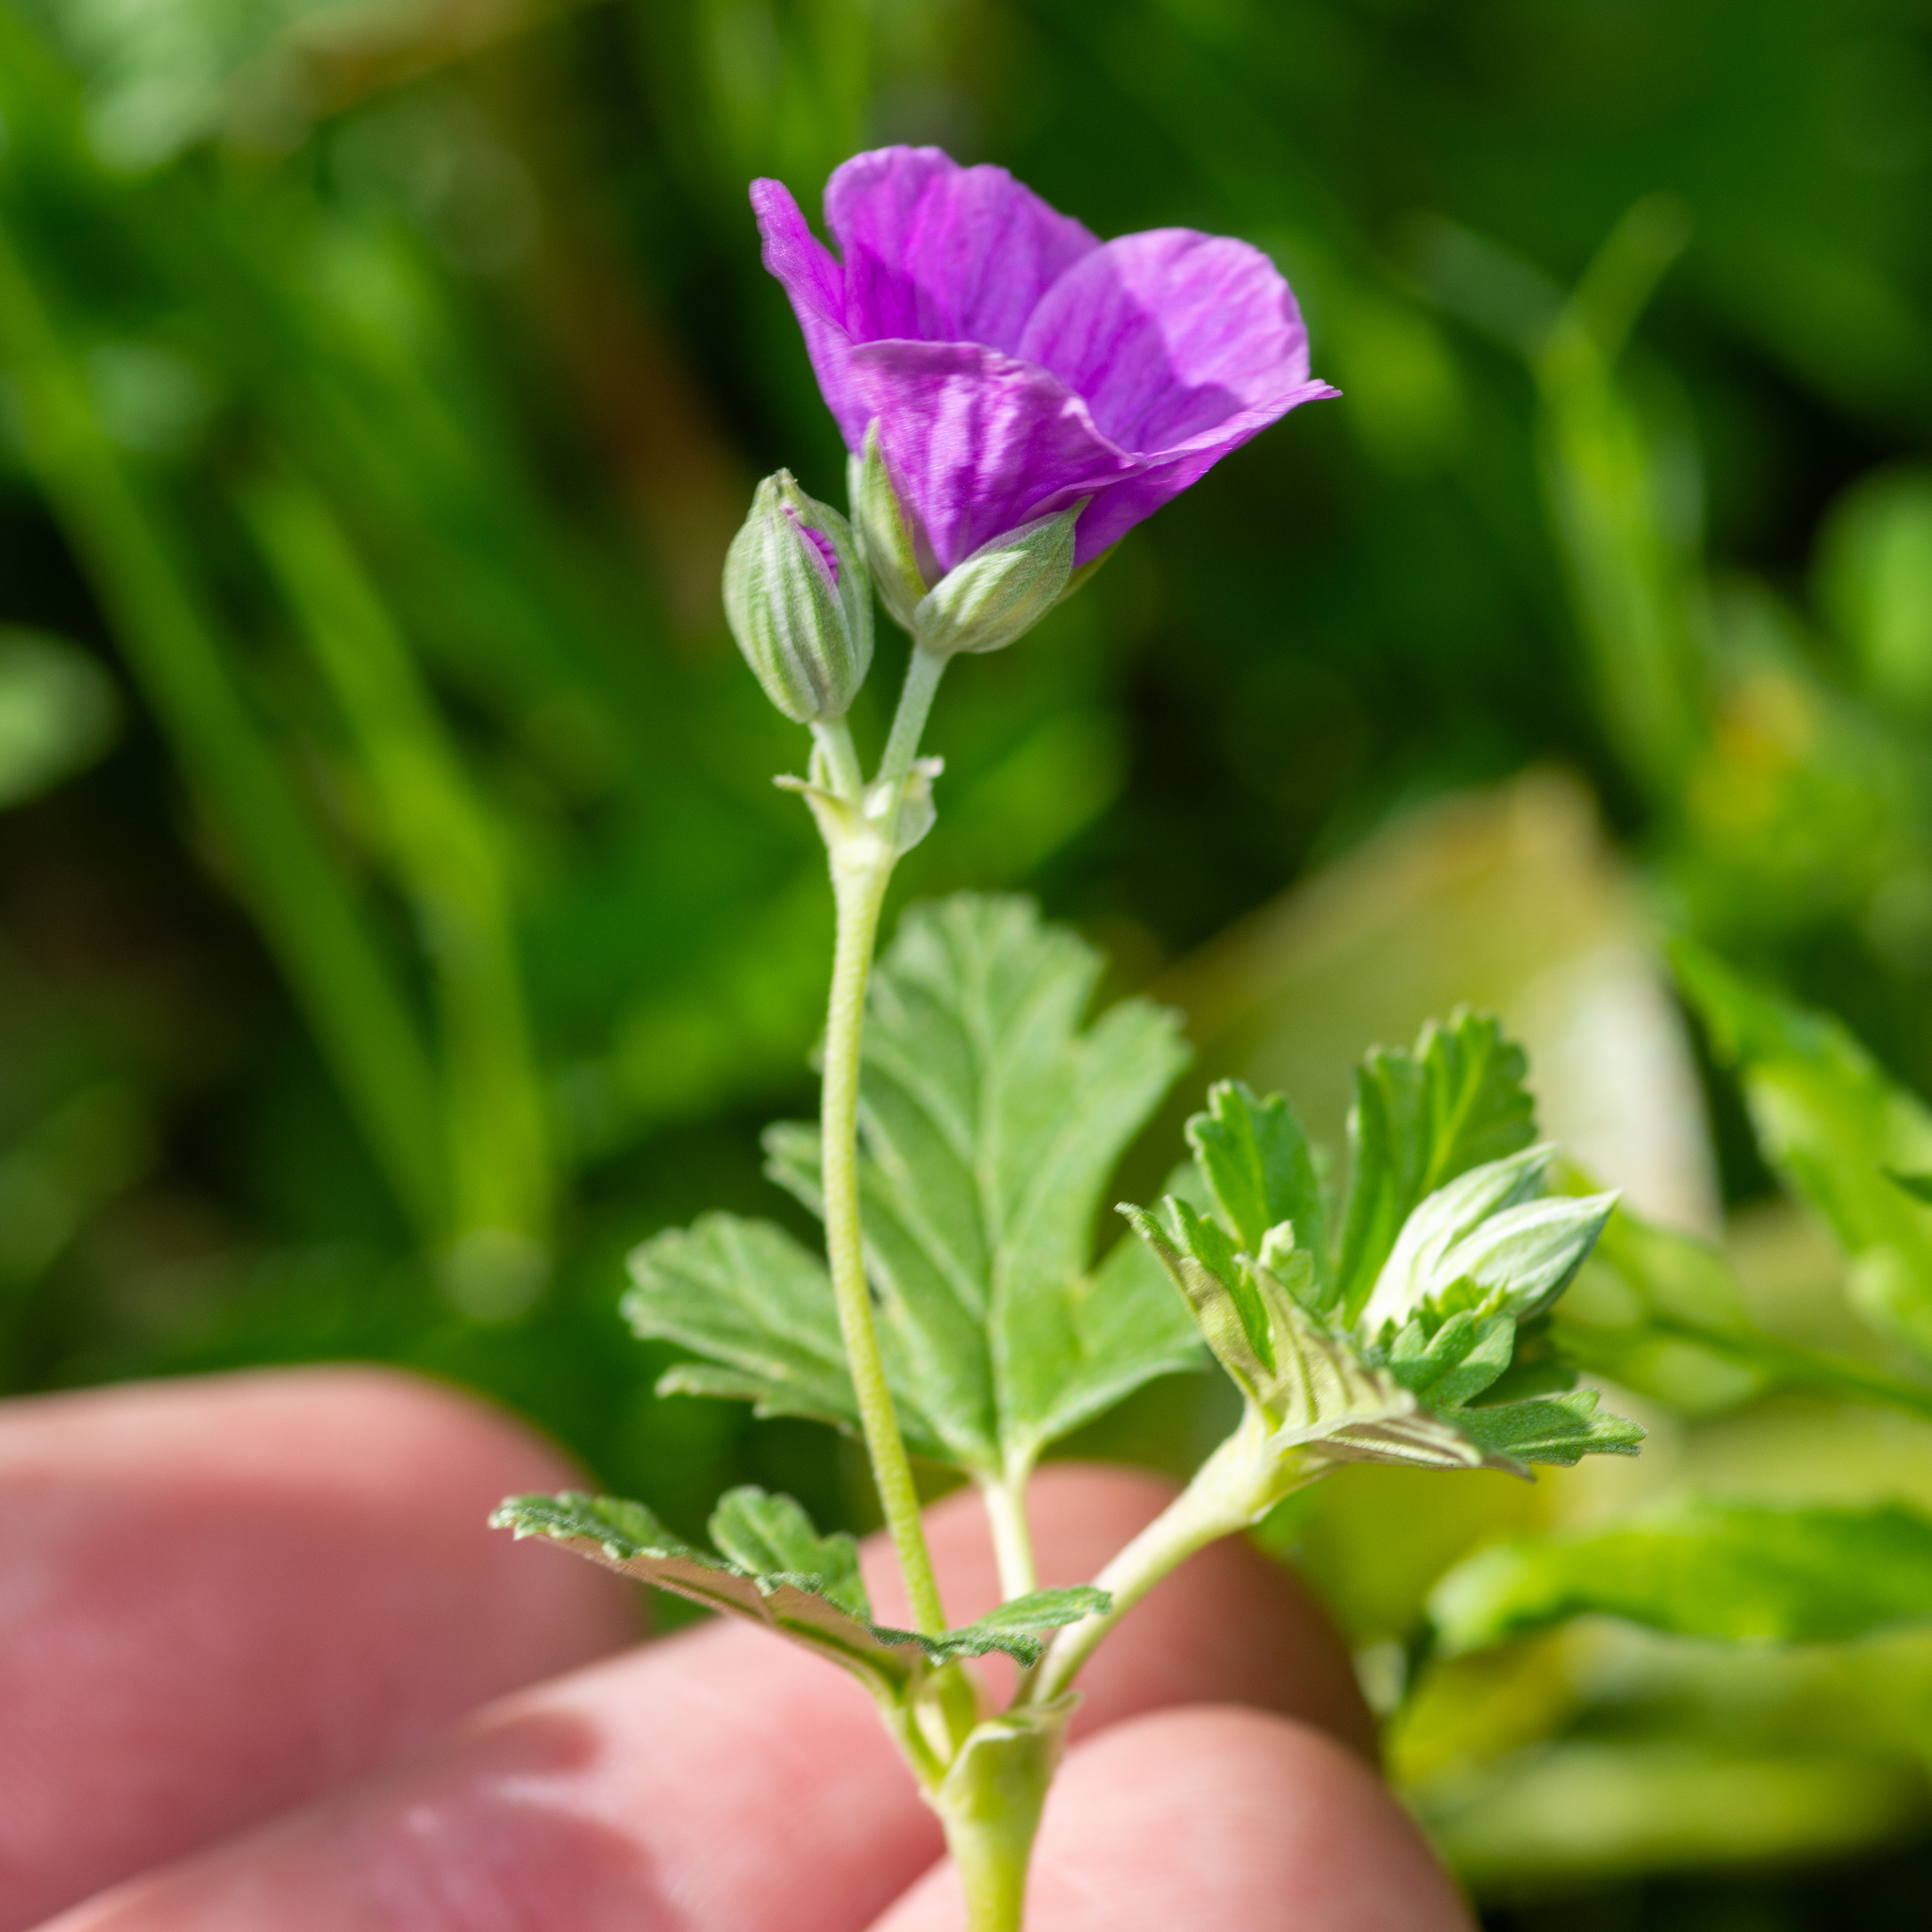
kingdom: Plantae
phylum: Tracheophyta
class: Magnoliopsida
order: Geraniales
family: Geraniaceae
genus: Erodium
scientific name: Erodium texanum
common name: Texas stork's-bill
